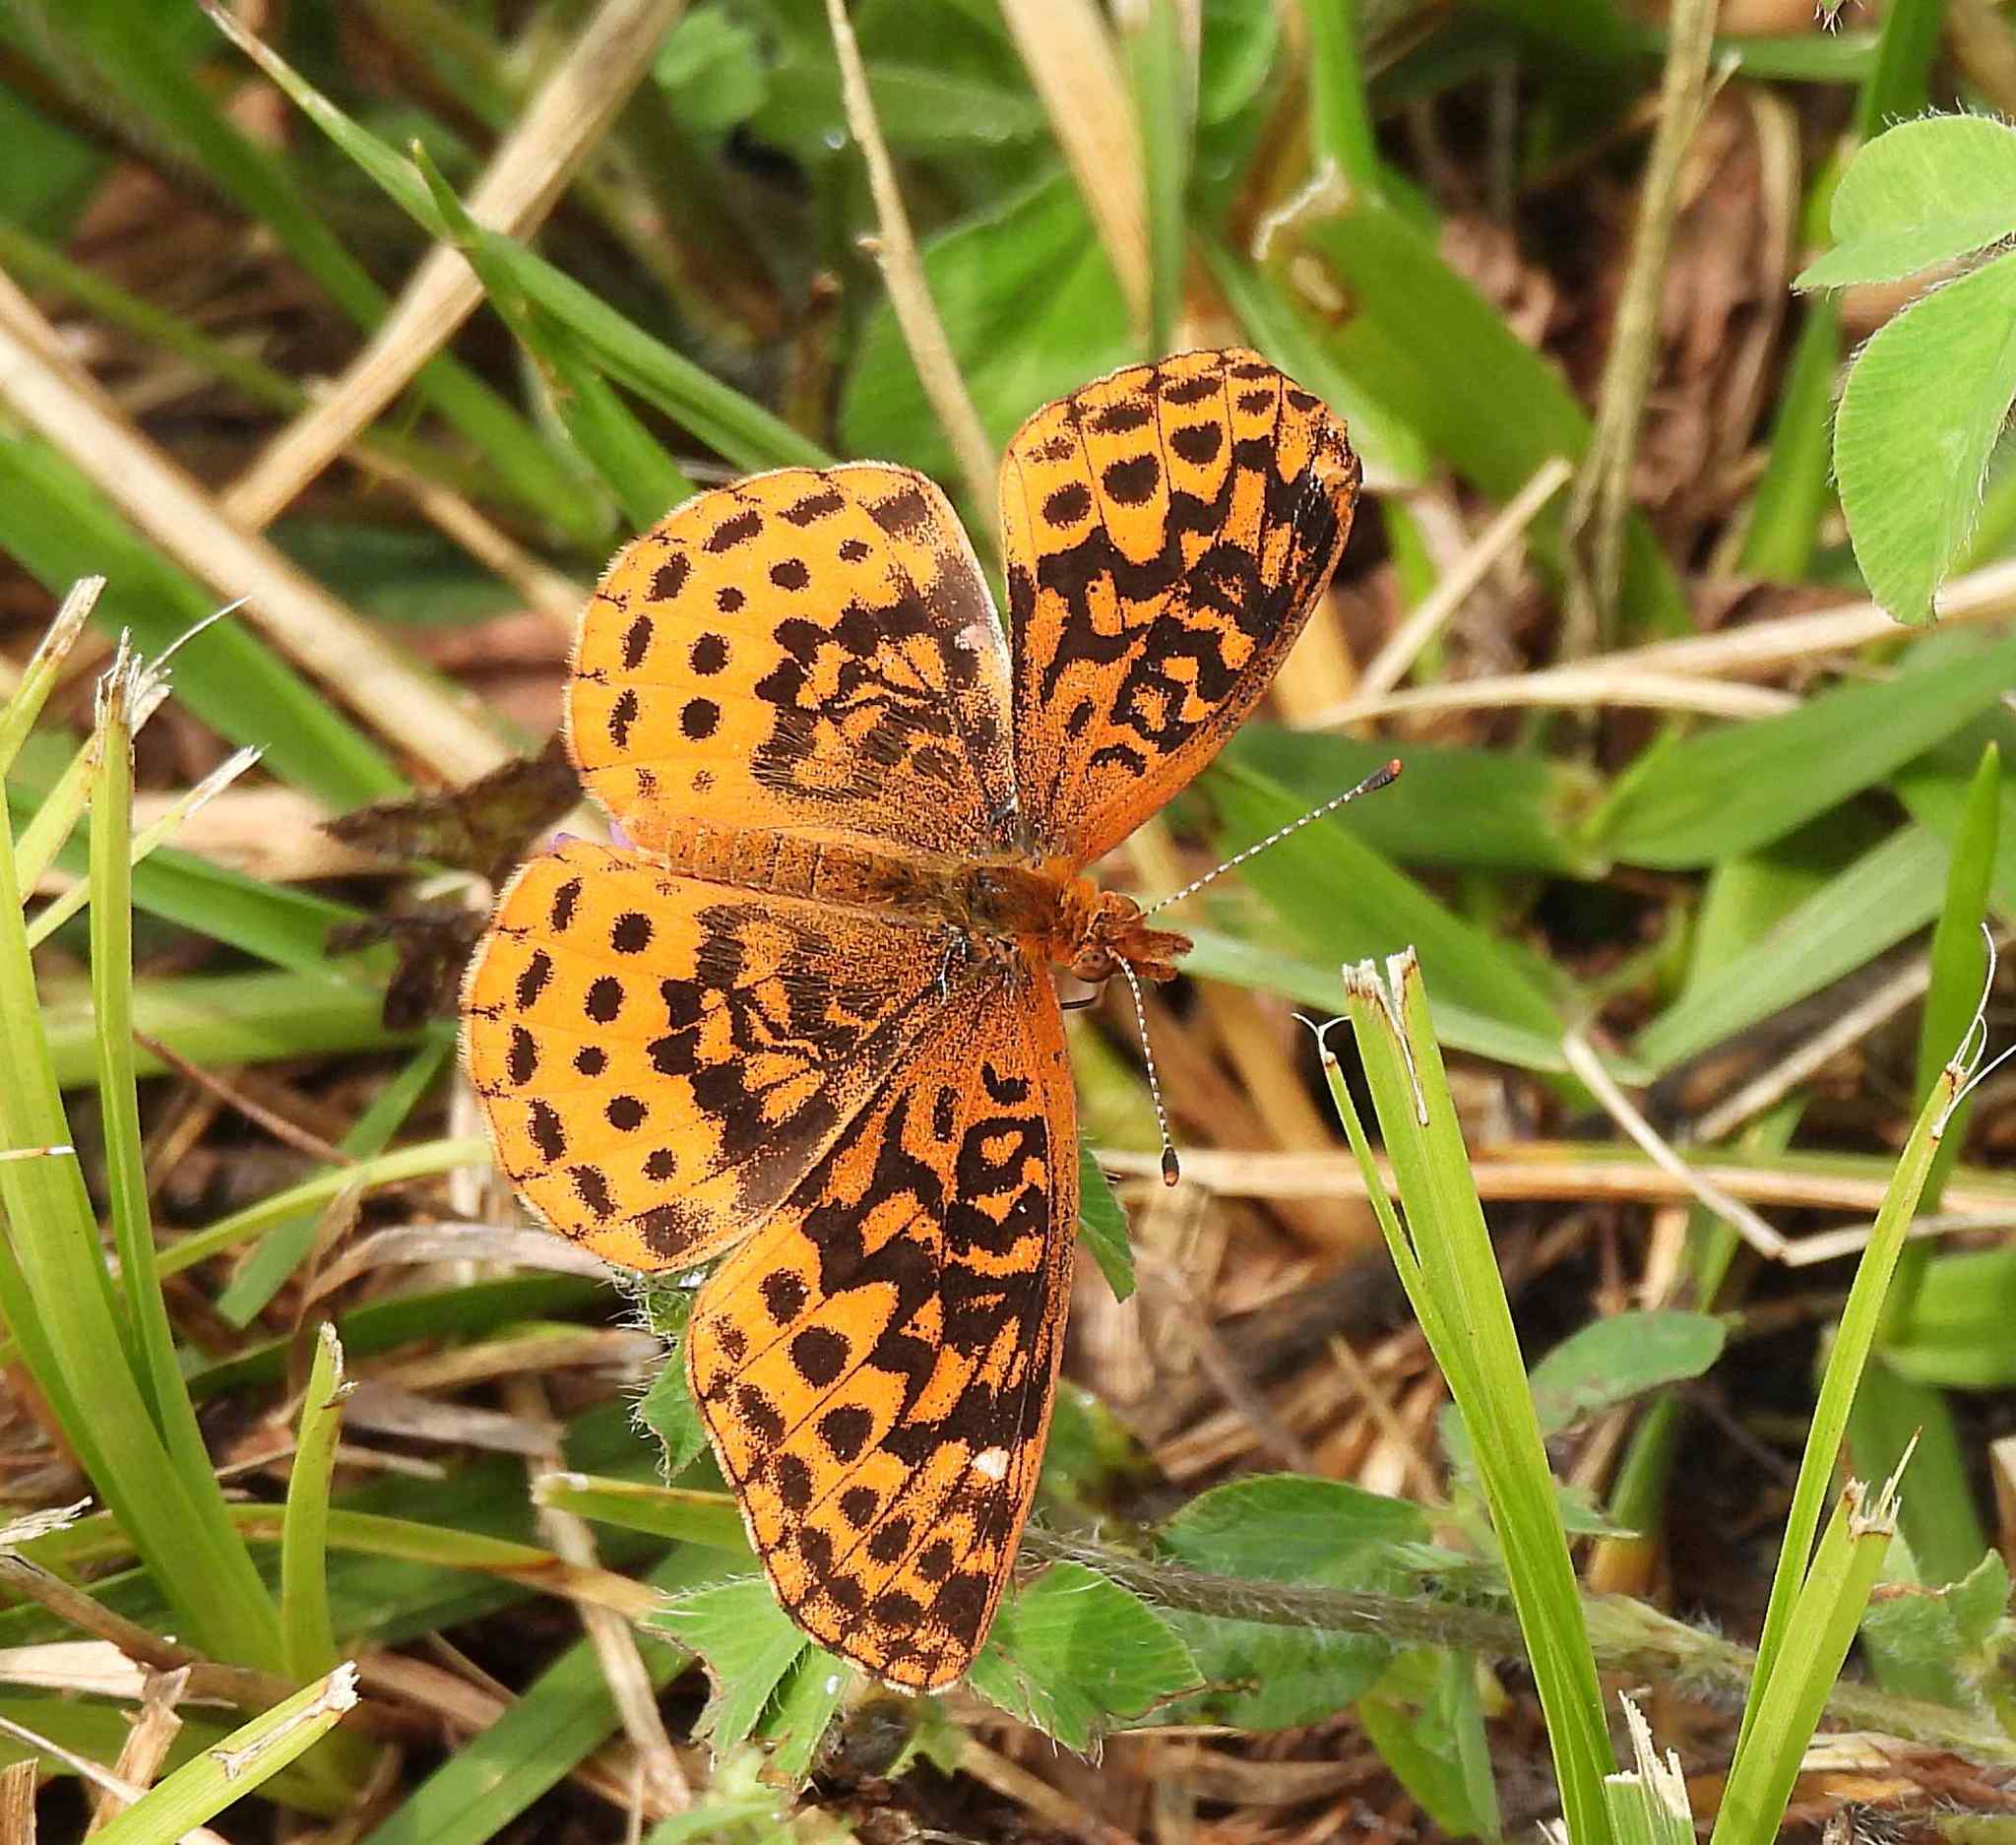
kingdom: Animalia
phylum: Arthropoda
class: Insecta
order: Lepidoptera
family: Nymphalidae
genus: Clossiana
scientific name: Clossiana toddi
